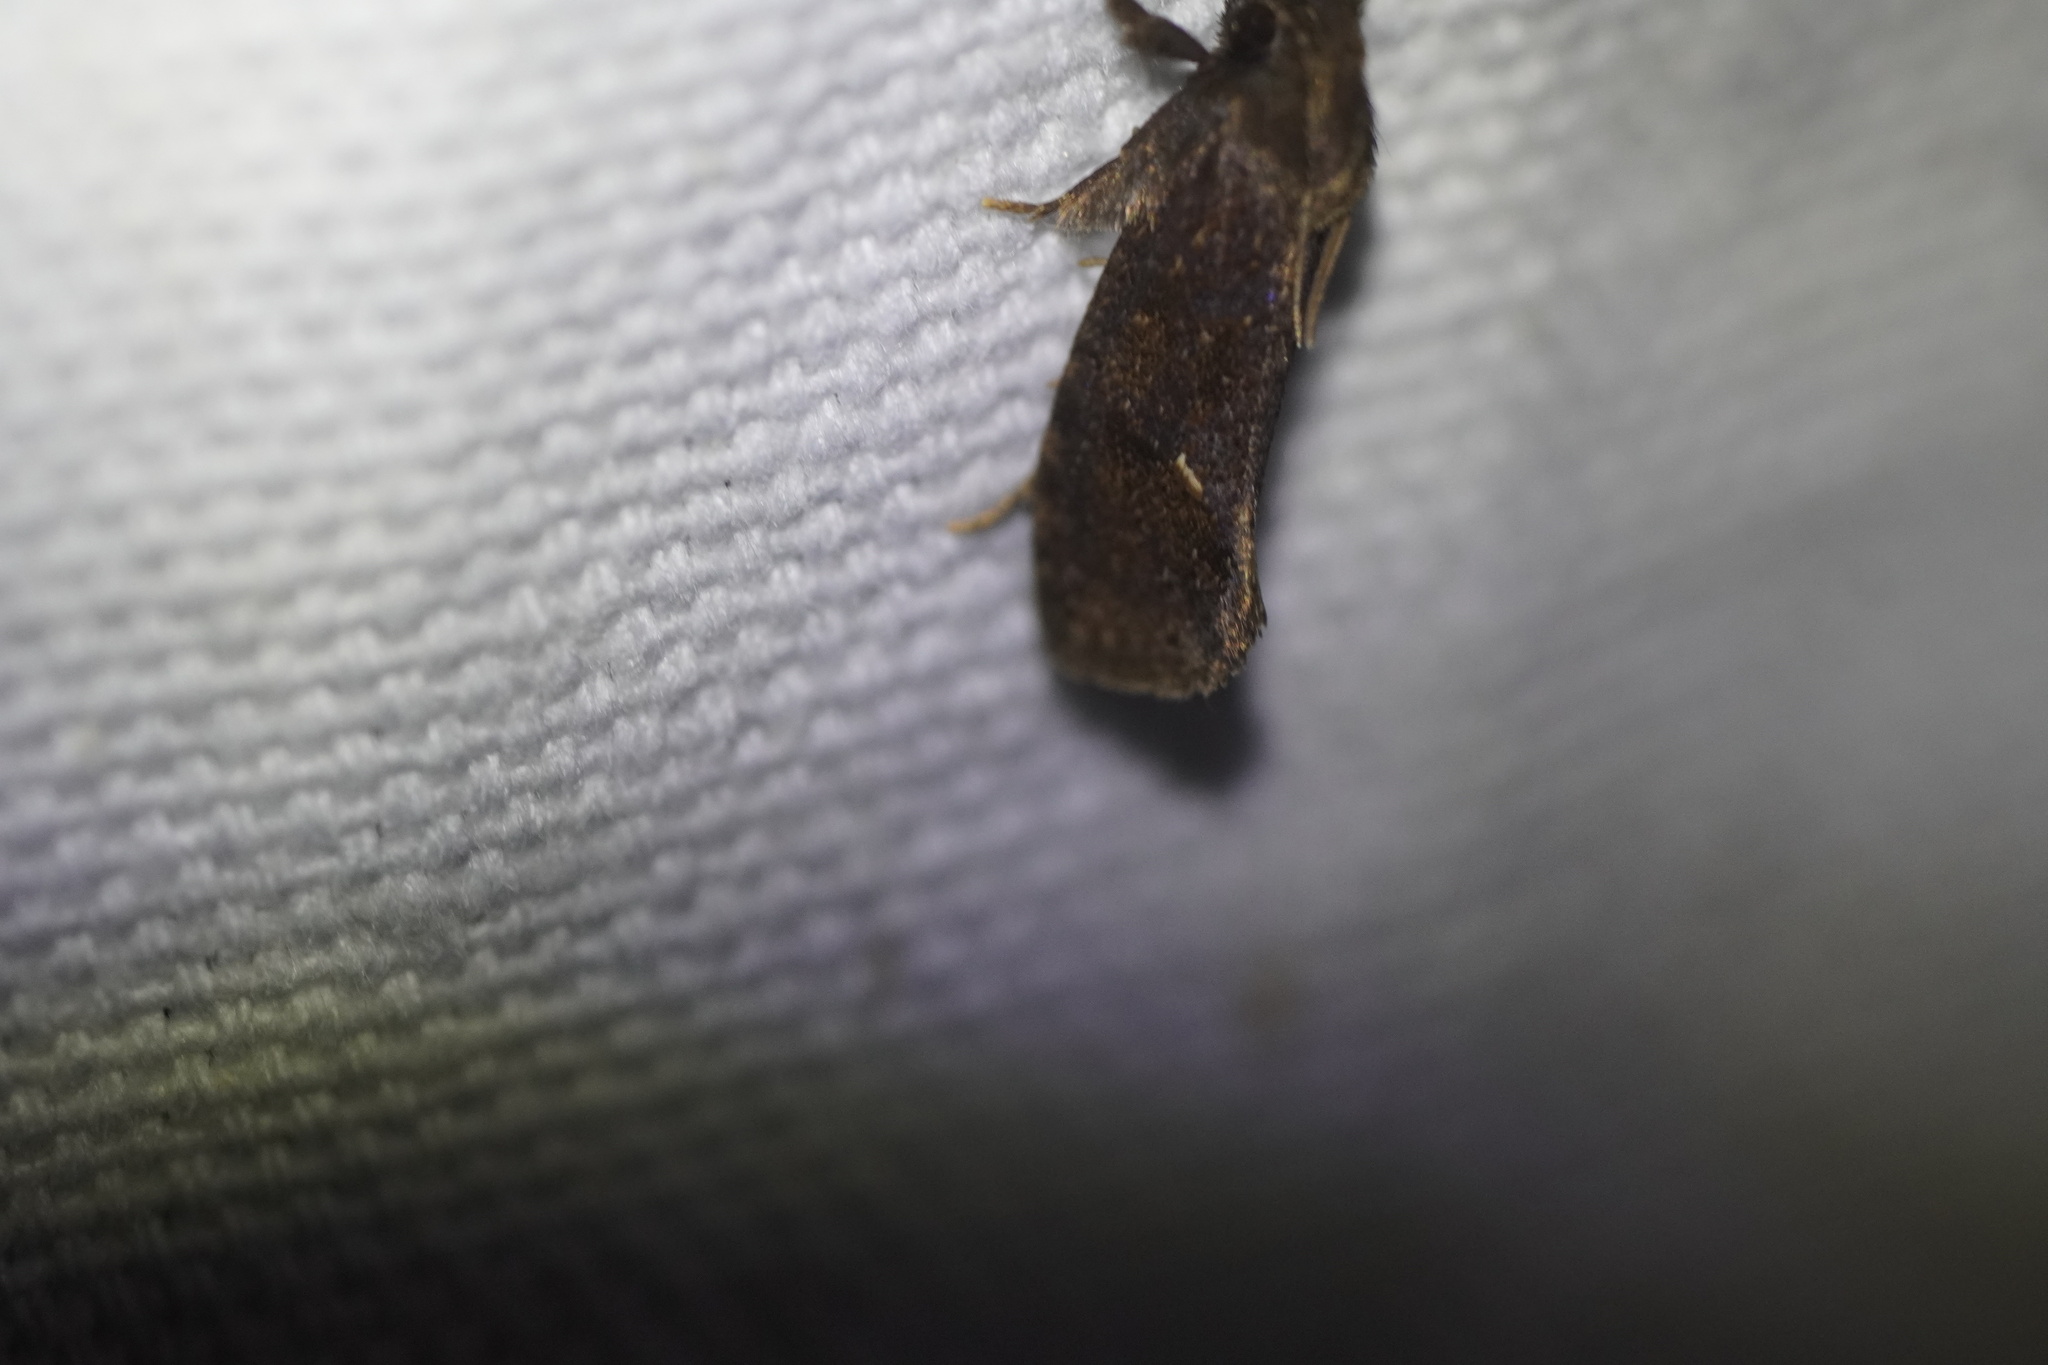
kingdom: Animalia
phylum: Arthropoda
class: Insecta
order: Lepidoptera
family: Tineidae
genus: Acrolophus
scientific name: Acrolophus texanella
